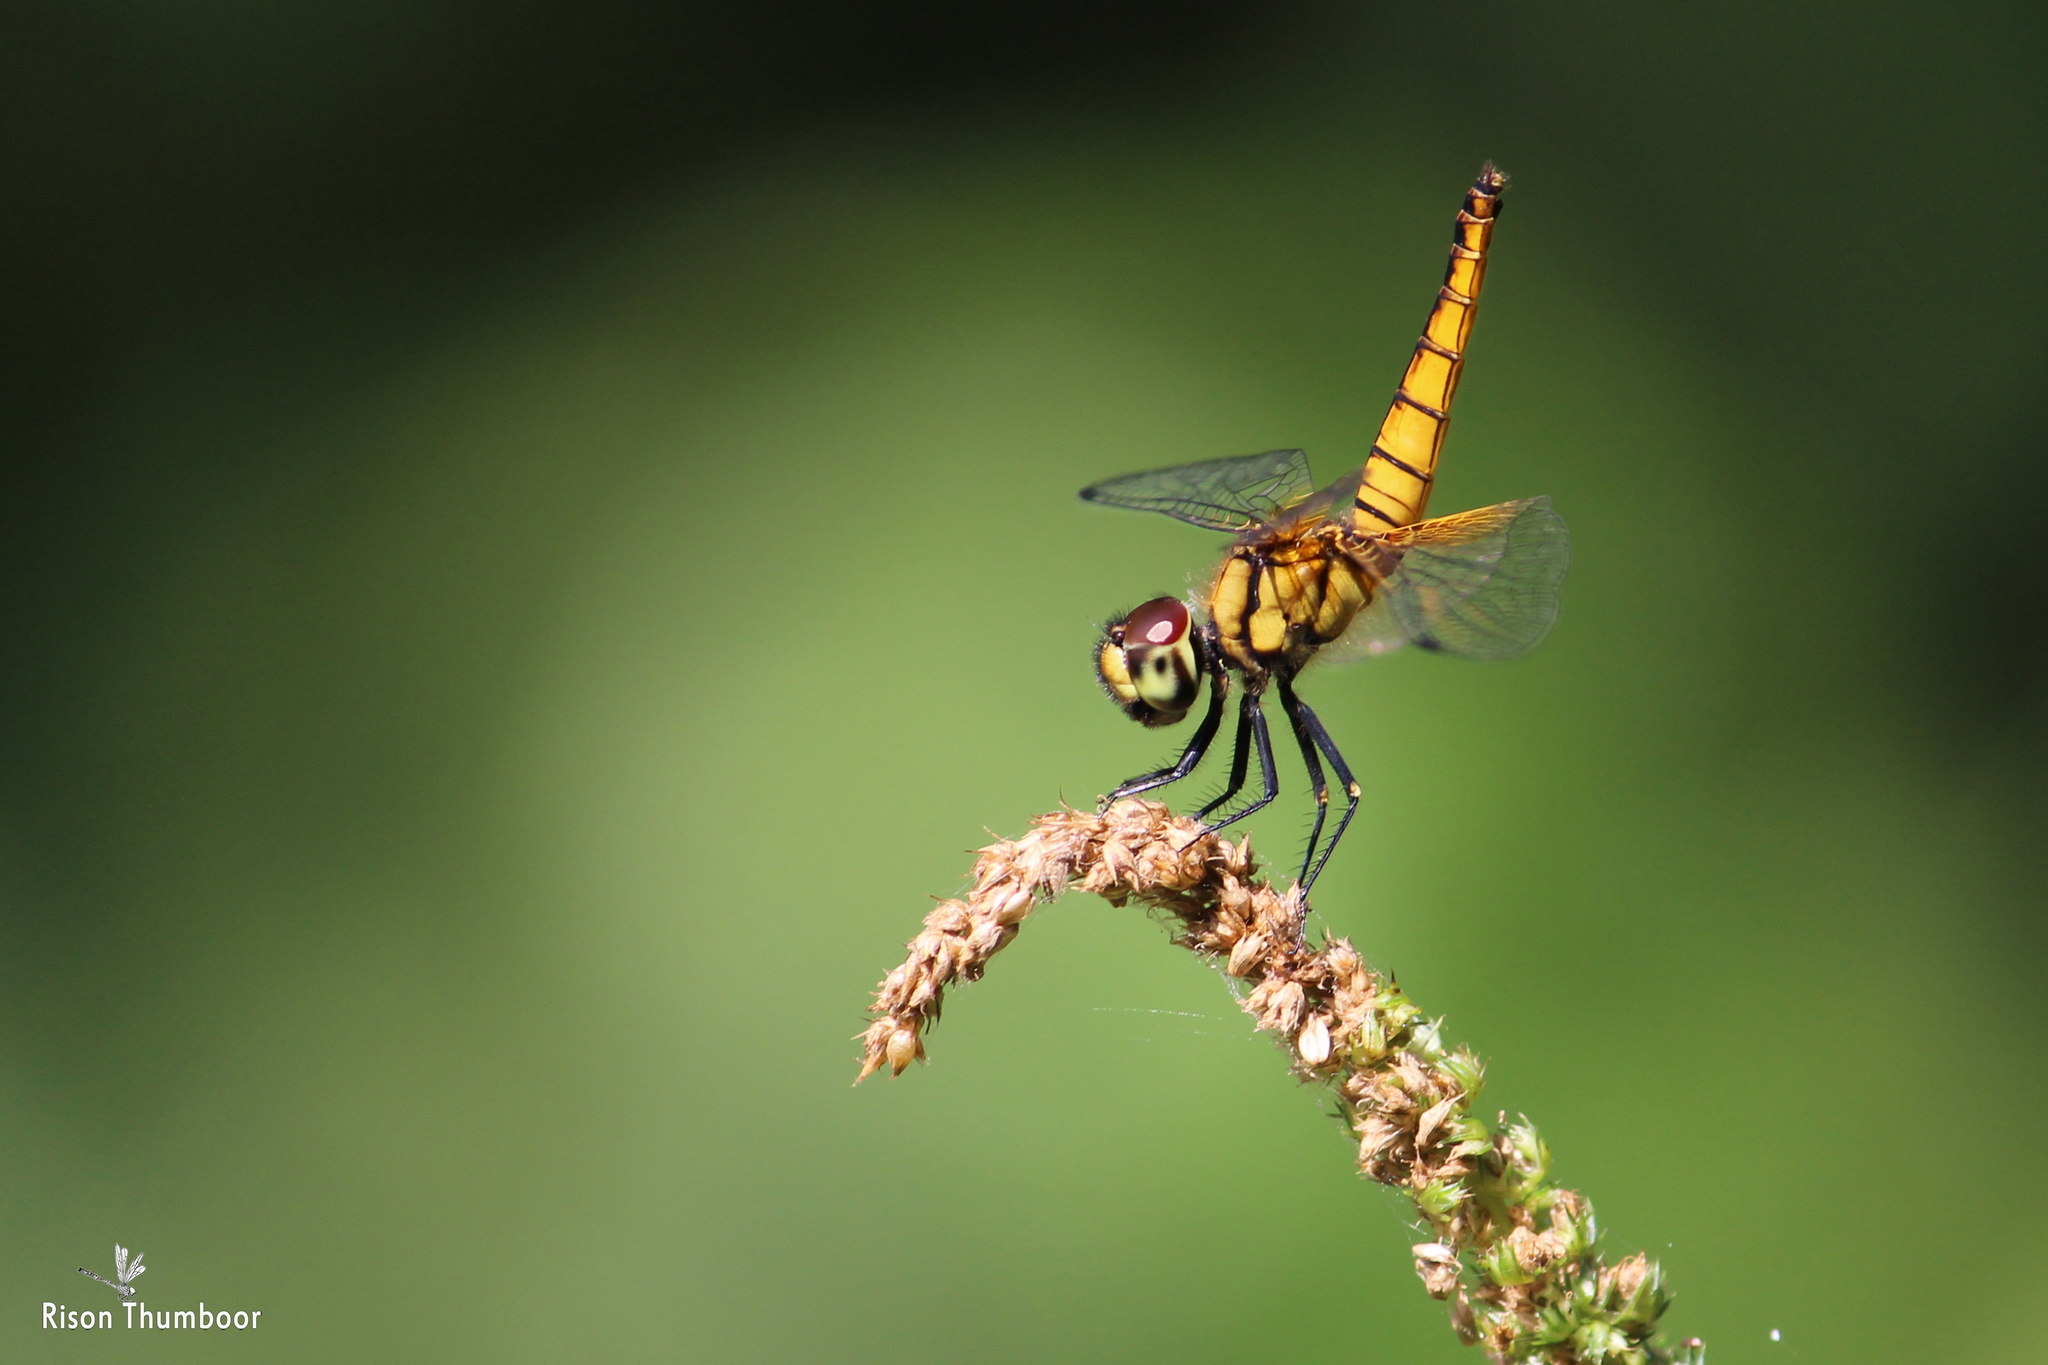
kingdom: Animalia
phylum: Arthropoda
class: Insecta
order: Odonata
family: Libellulidae
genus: Aethriamanta
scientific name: Aethriamanta brevipennis
